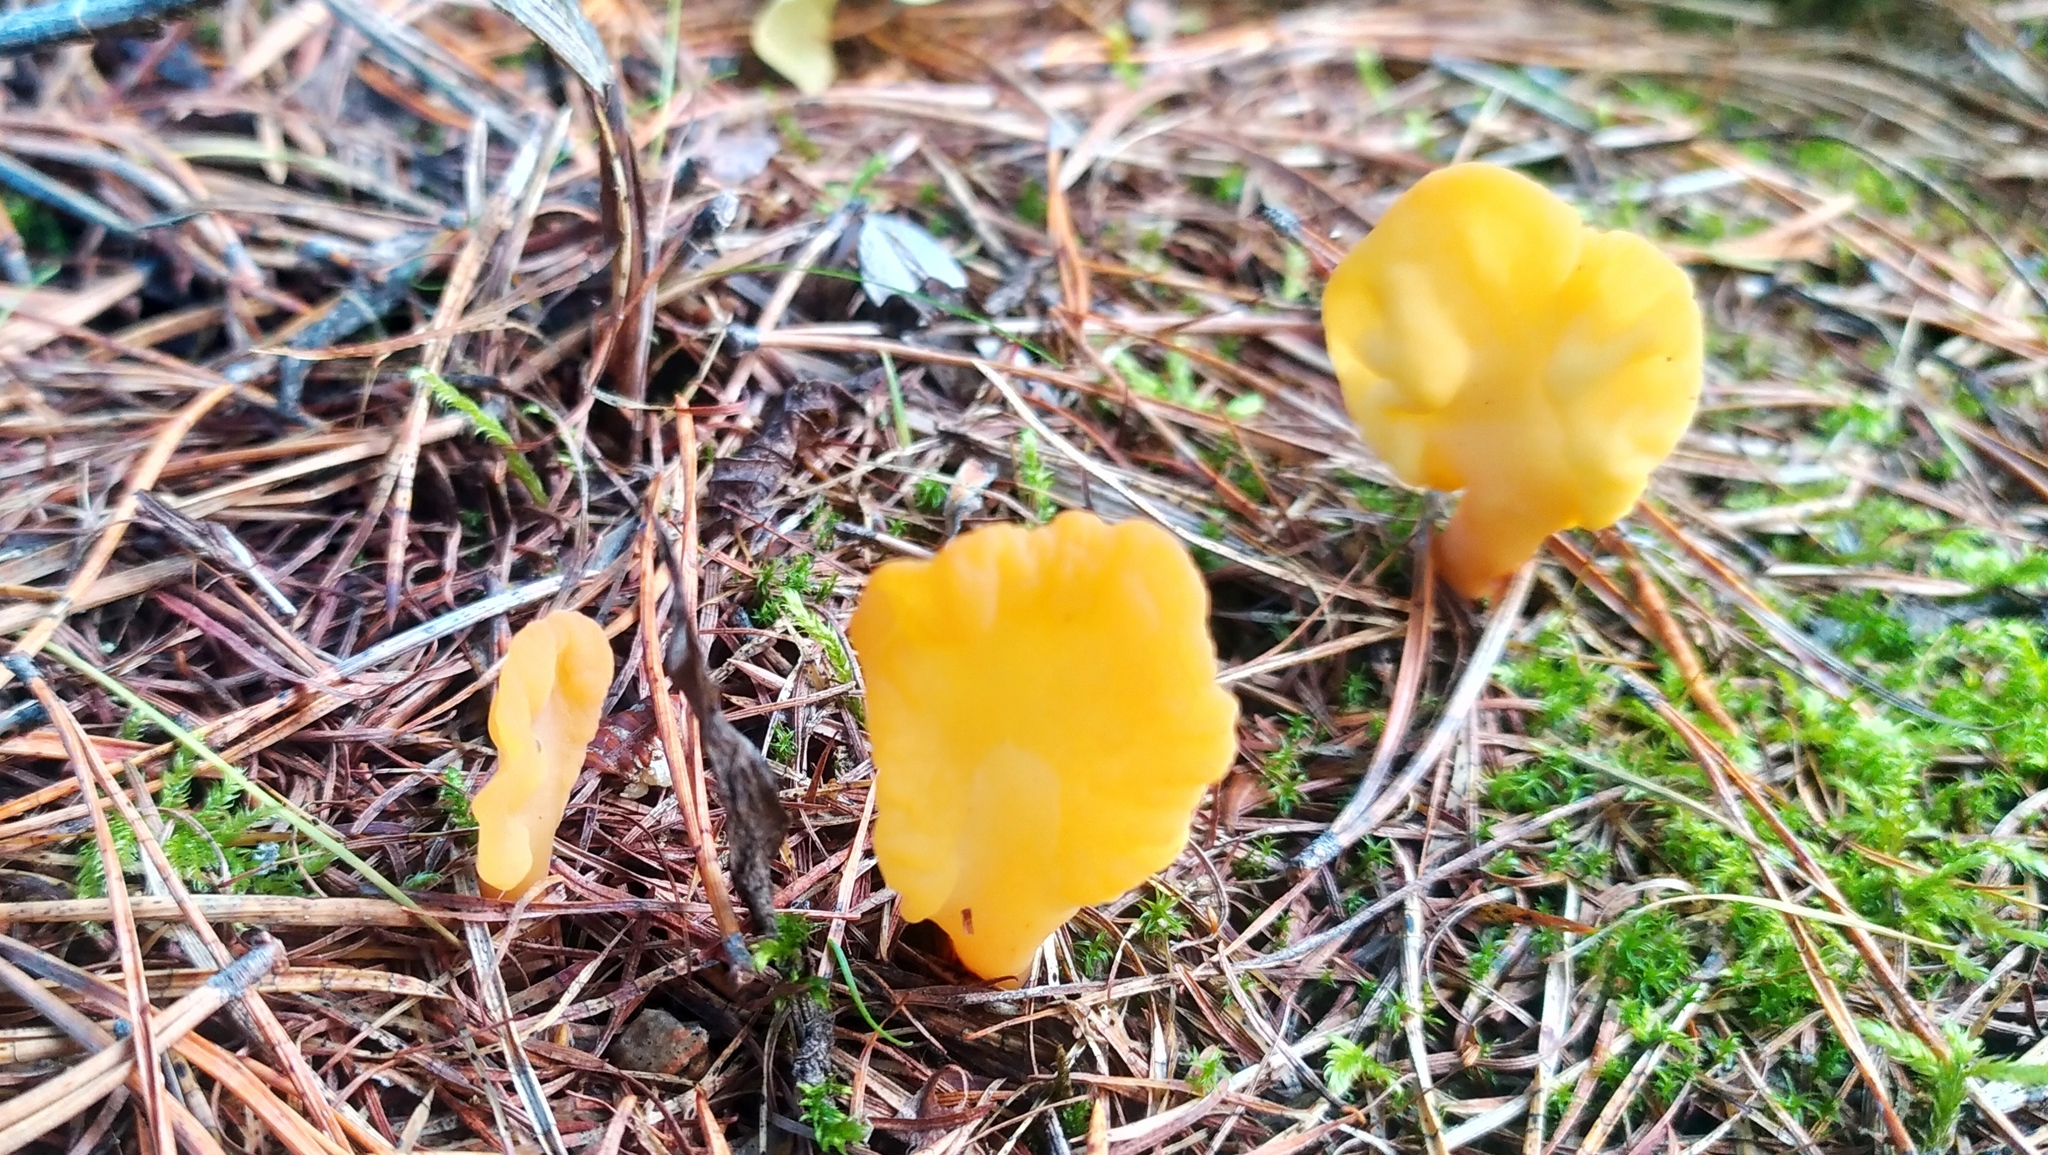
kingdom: Fungi
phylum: Ascomycota
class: Leotiomycetes
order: Rhytismatales
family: Cudoniaceae
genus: Spathularia
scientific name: Spathularia flavida
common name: Yellow fan
